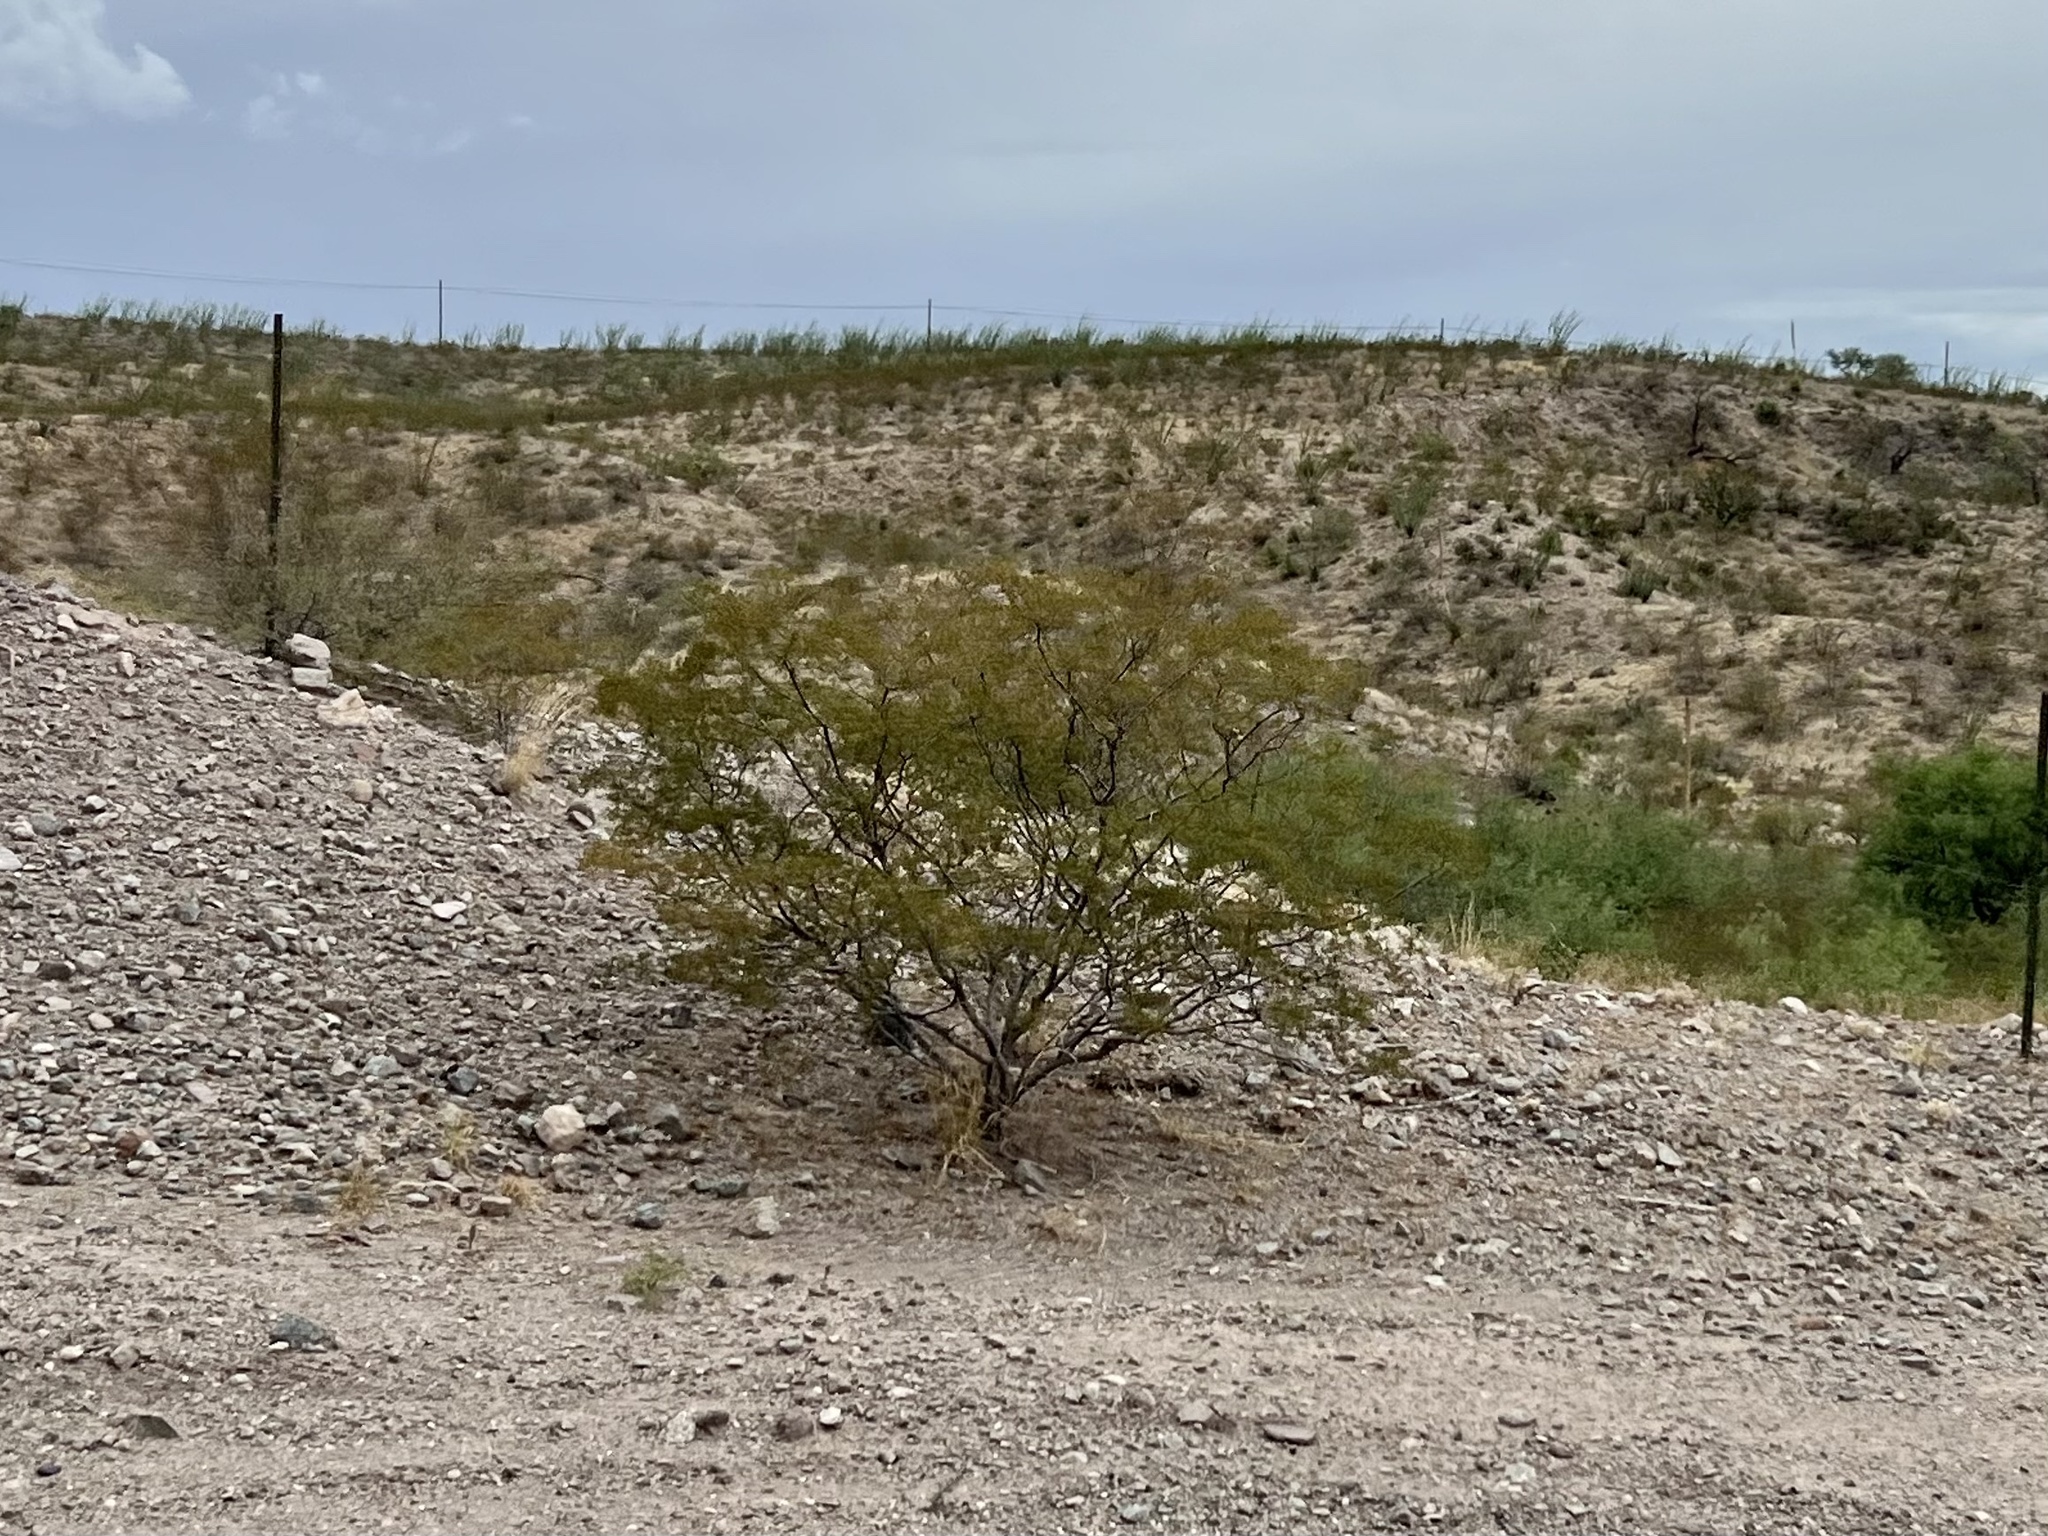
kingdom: Plantae
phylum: Tracheophyta
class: Magnoliopsida
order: Zygophyllales
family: Zygophyllaceae
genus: Larrea
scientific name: Larrea tridentata
